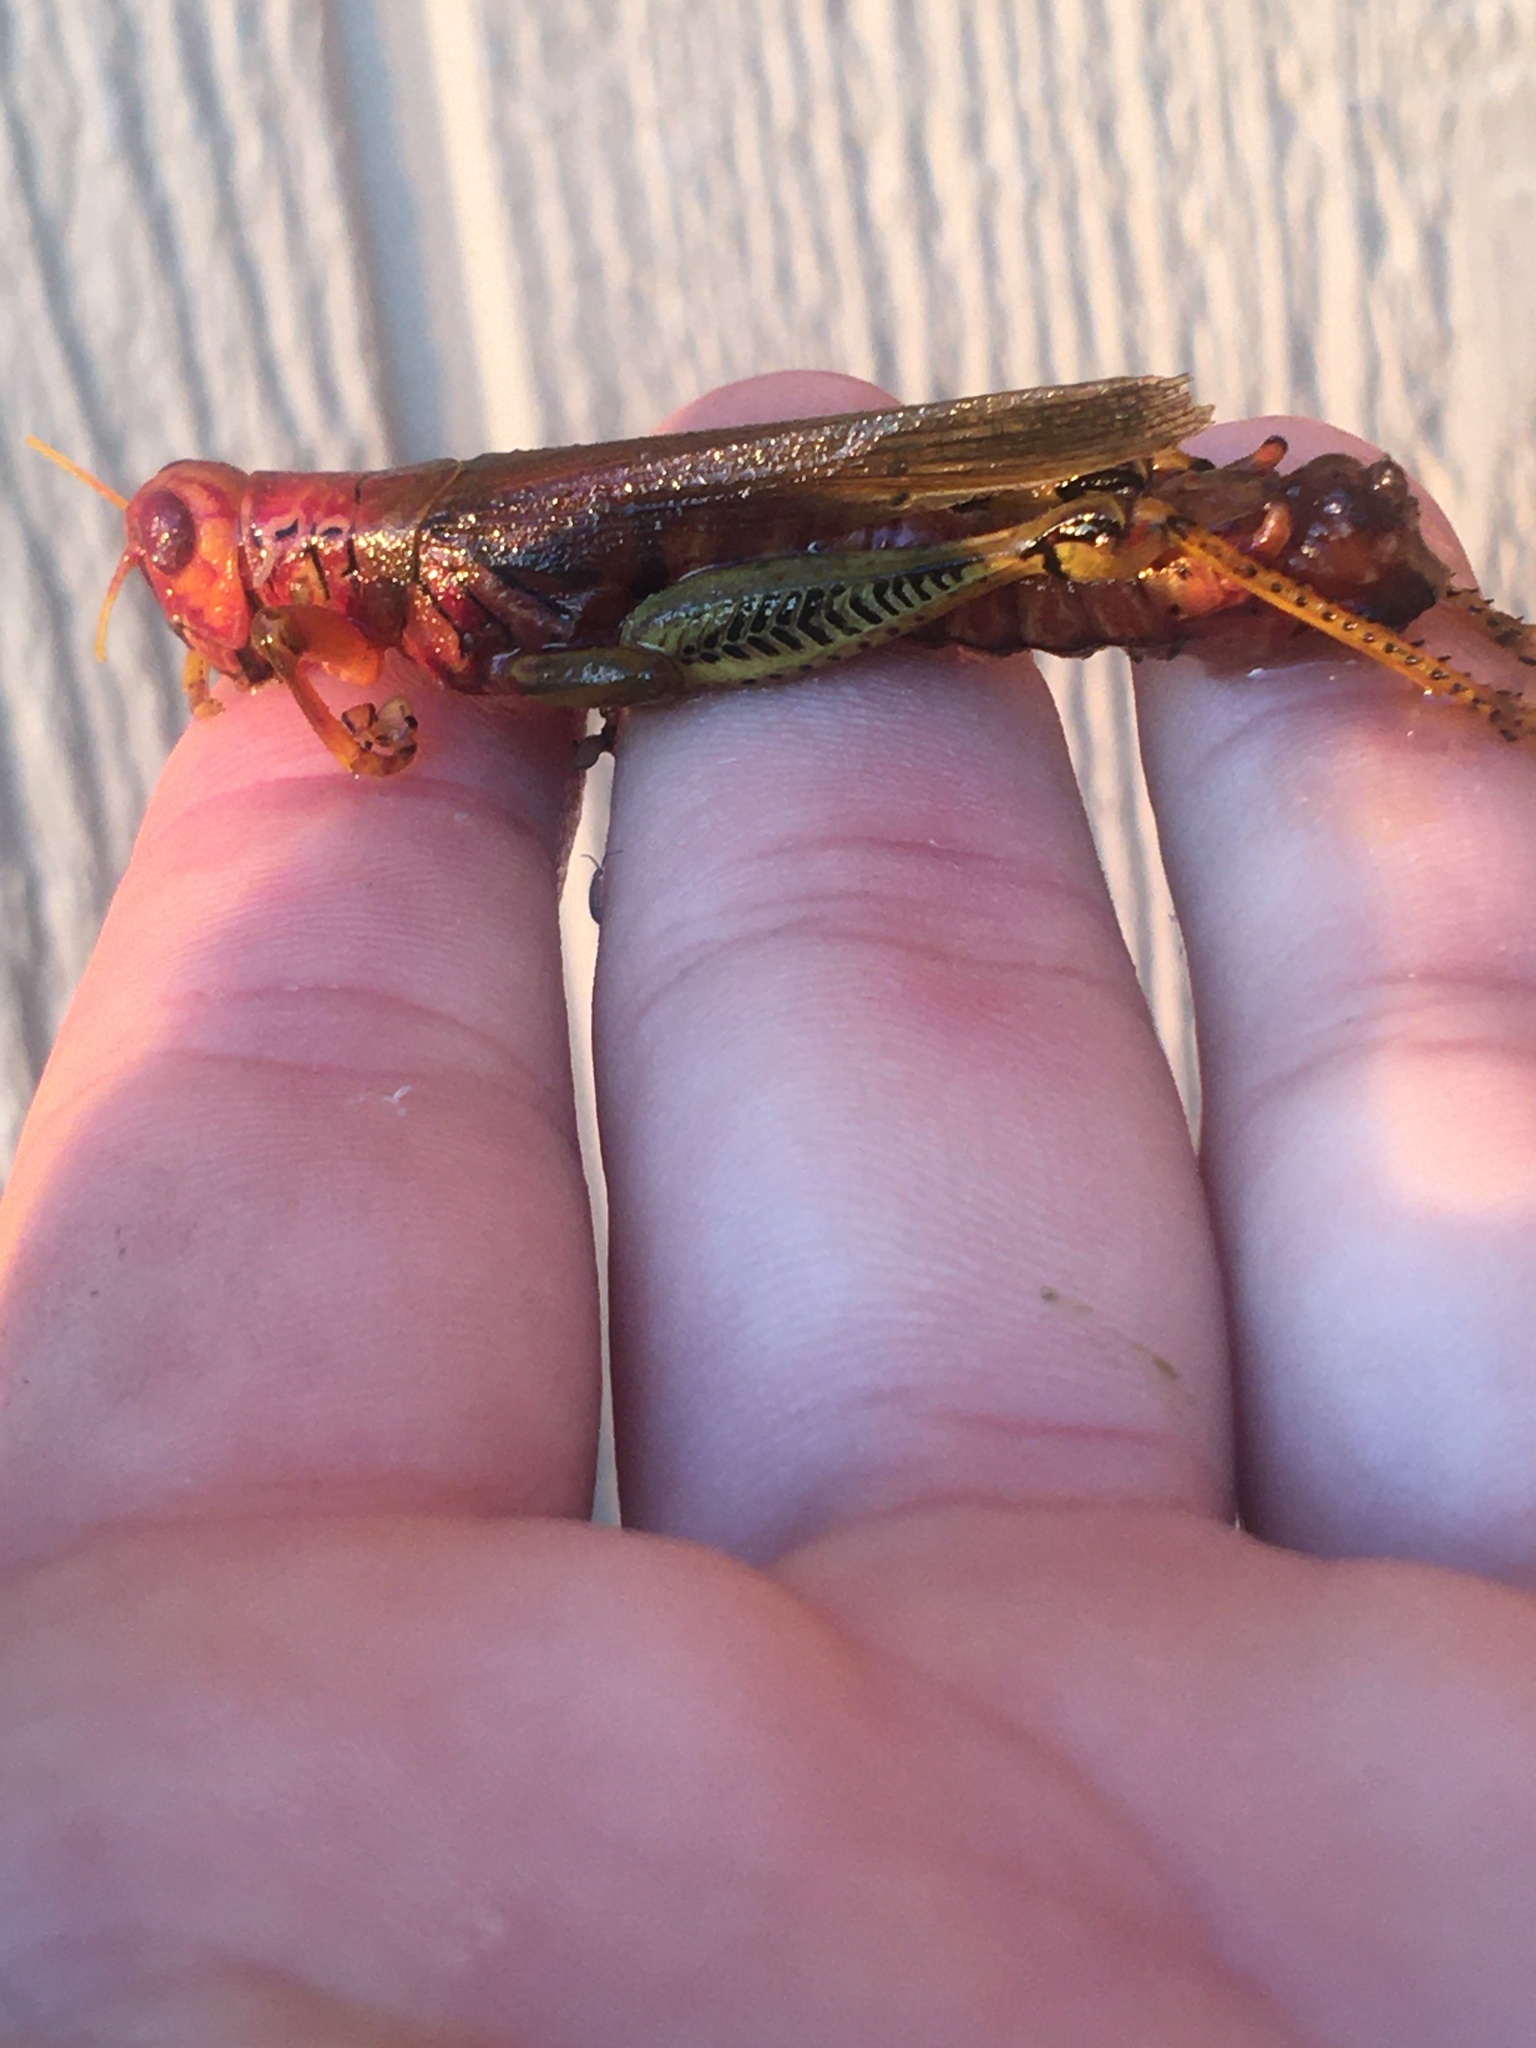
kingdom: Animalia
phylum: Arthropoda
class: Insecta
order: Orthoptera
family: Acrididae
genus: Melanoplus
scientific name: Melanoplus differentialis
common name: Differential grasshopper
